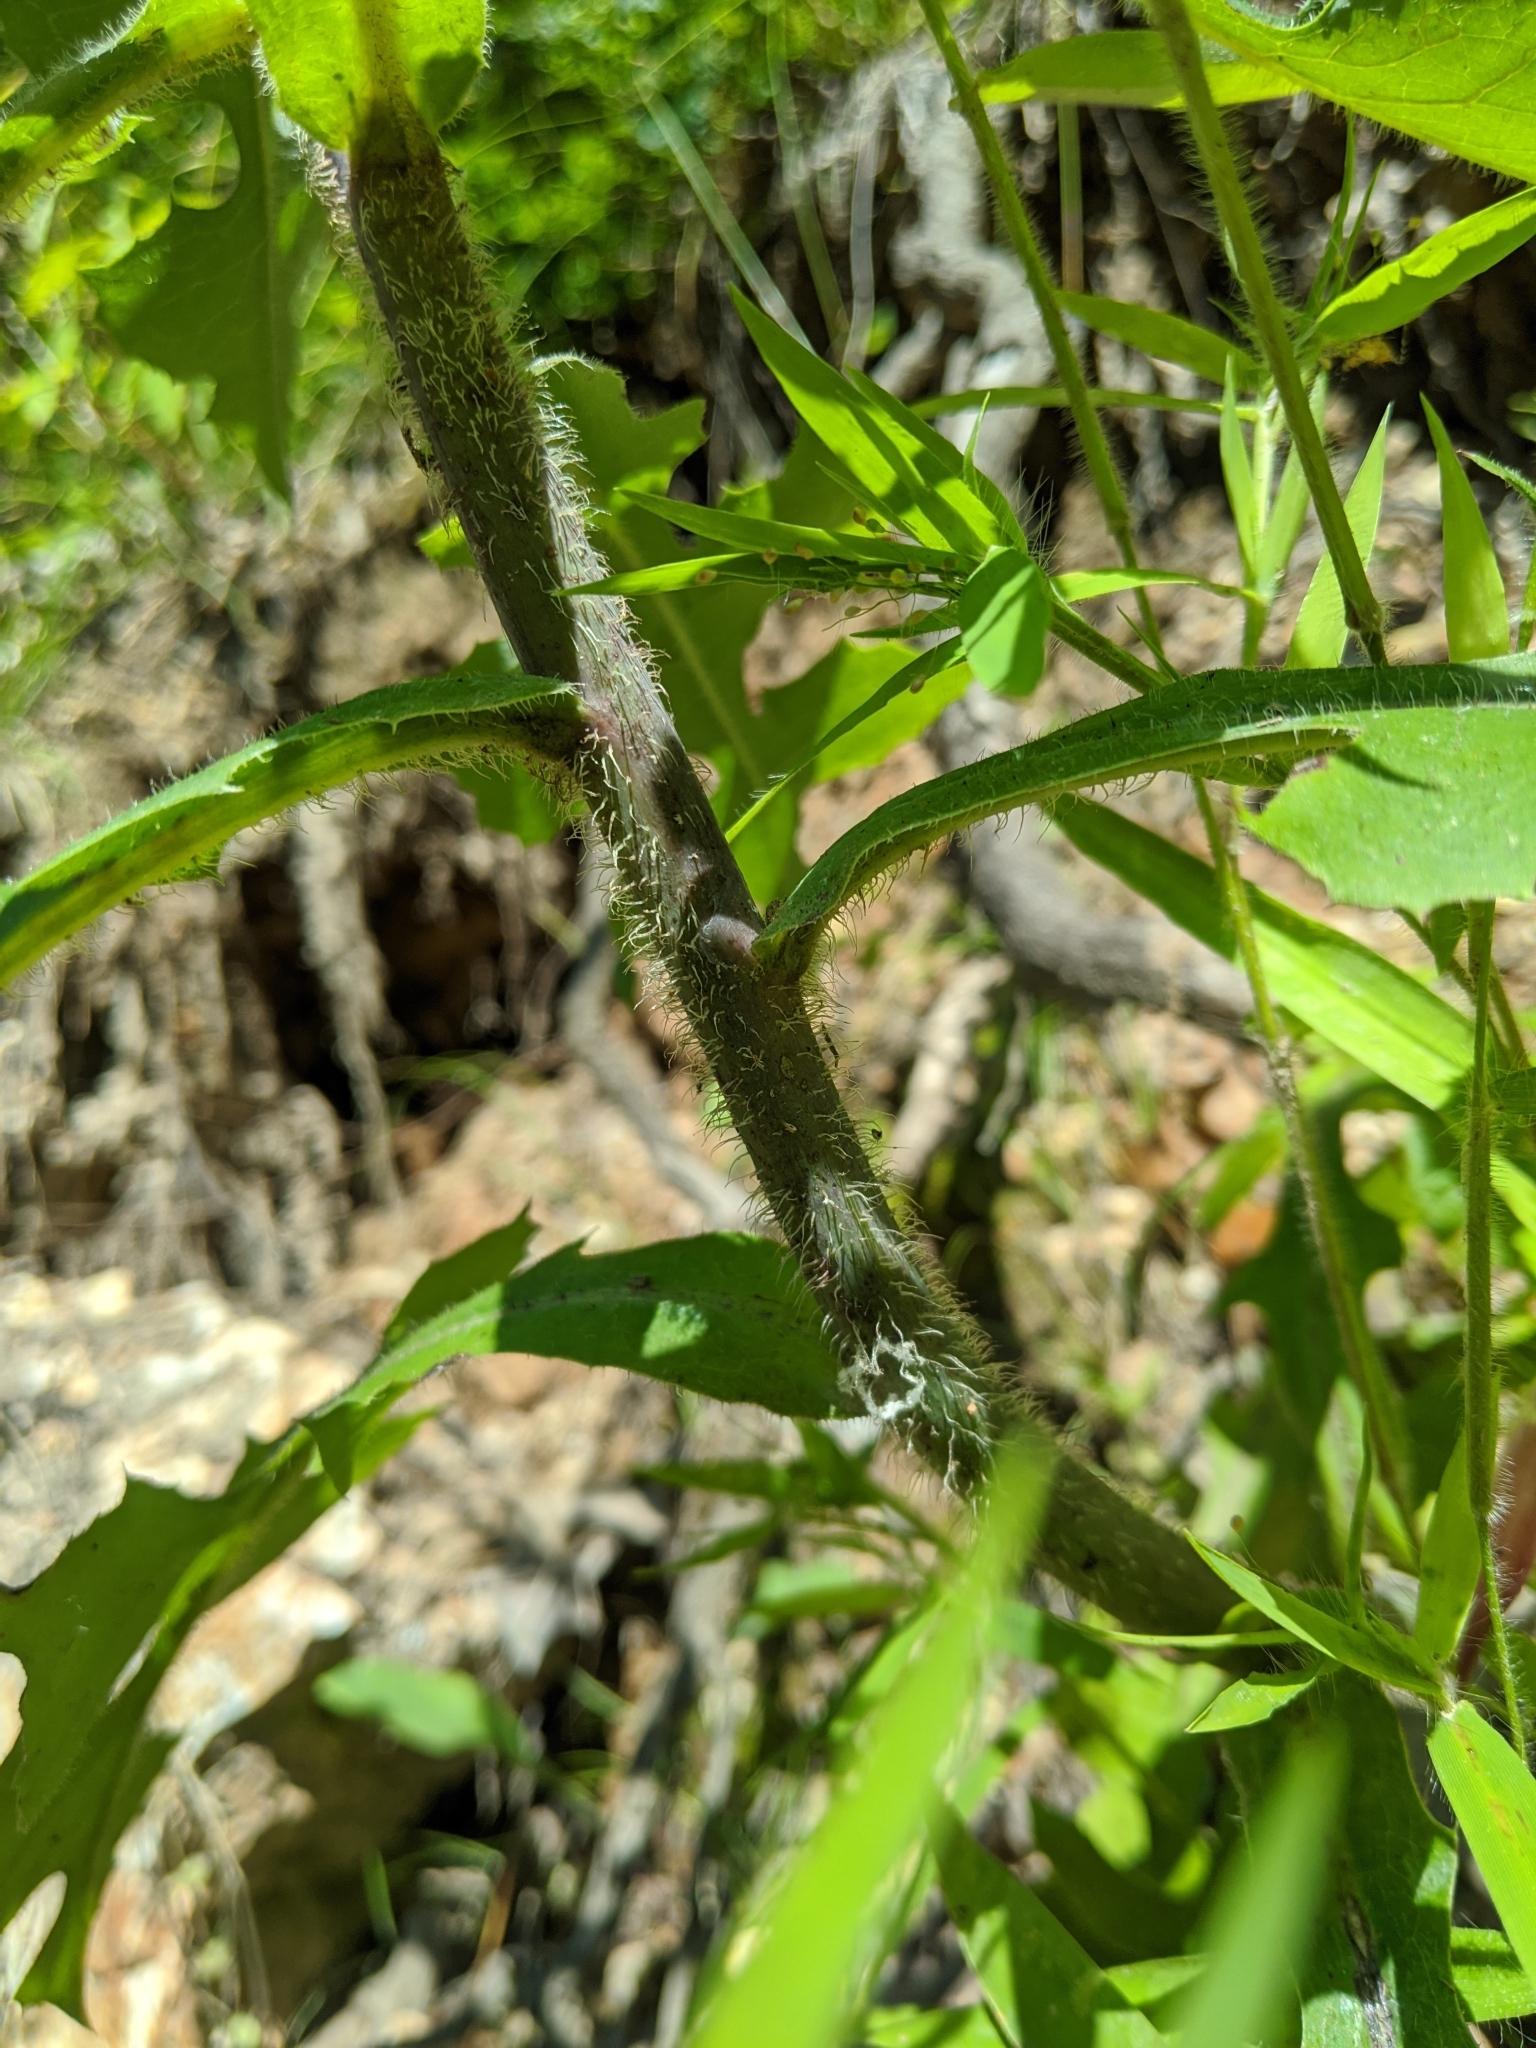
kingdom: Plantae
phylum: Tracheophyta
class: Magnoliopsida
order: Asterales
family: Asteraceae
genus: Lactuca
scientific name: Lactuca hirsuta
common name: Hairy lettuce
